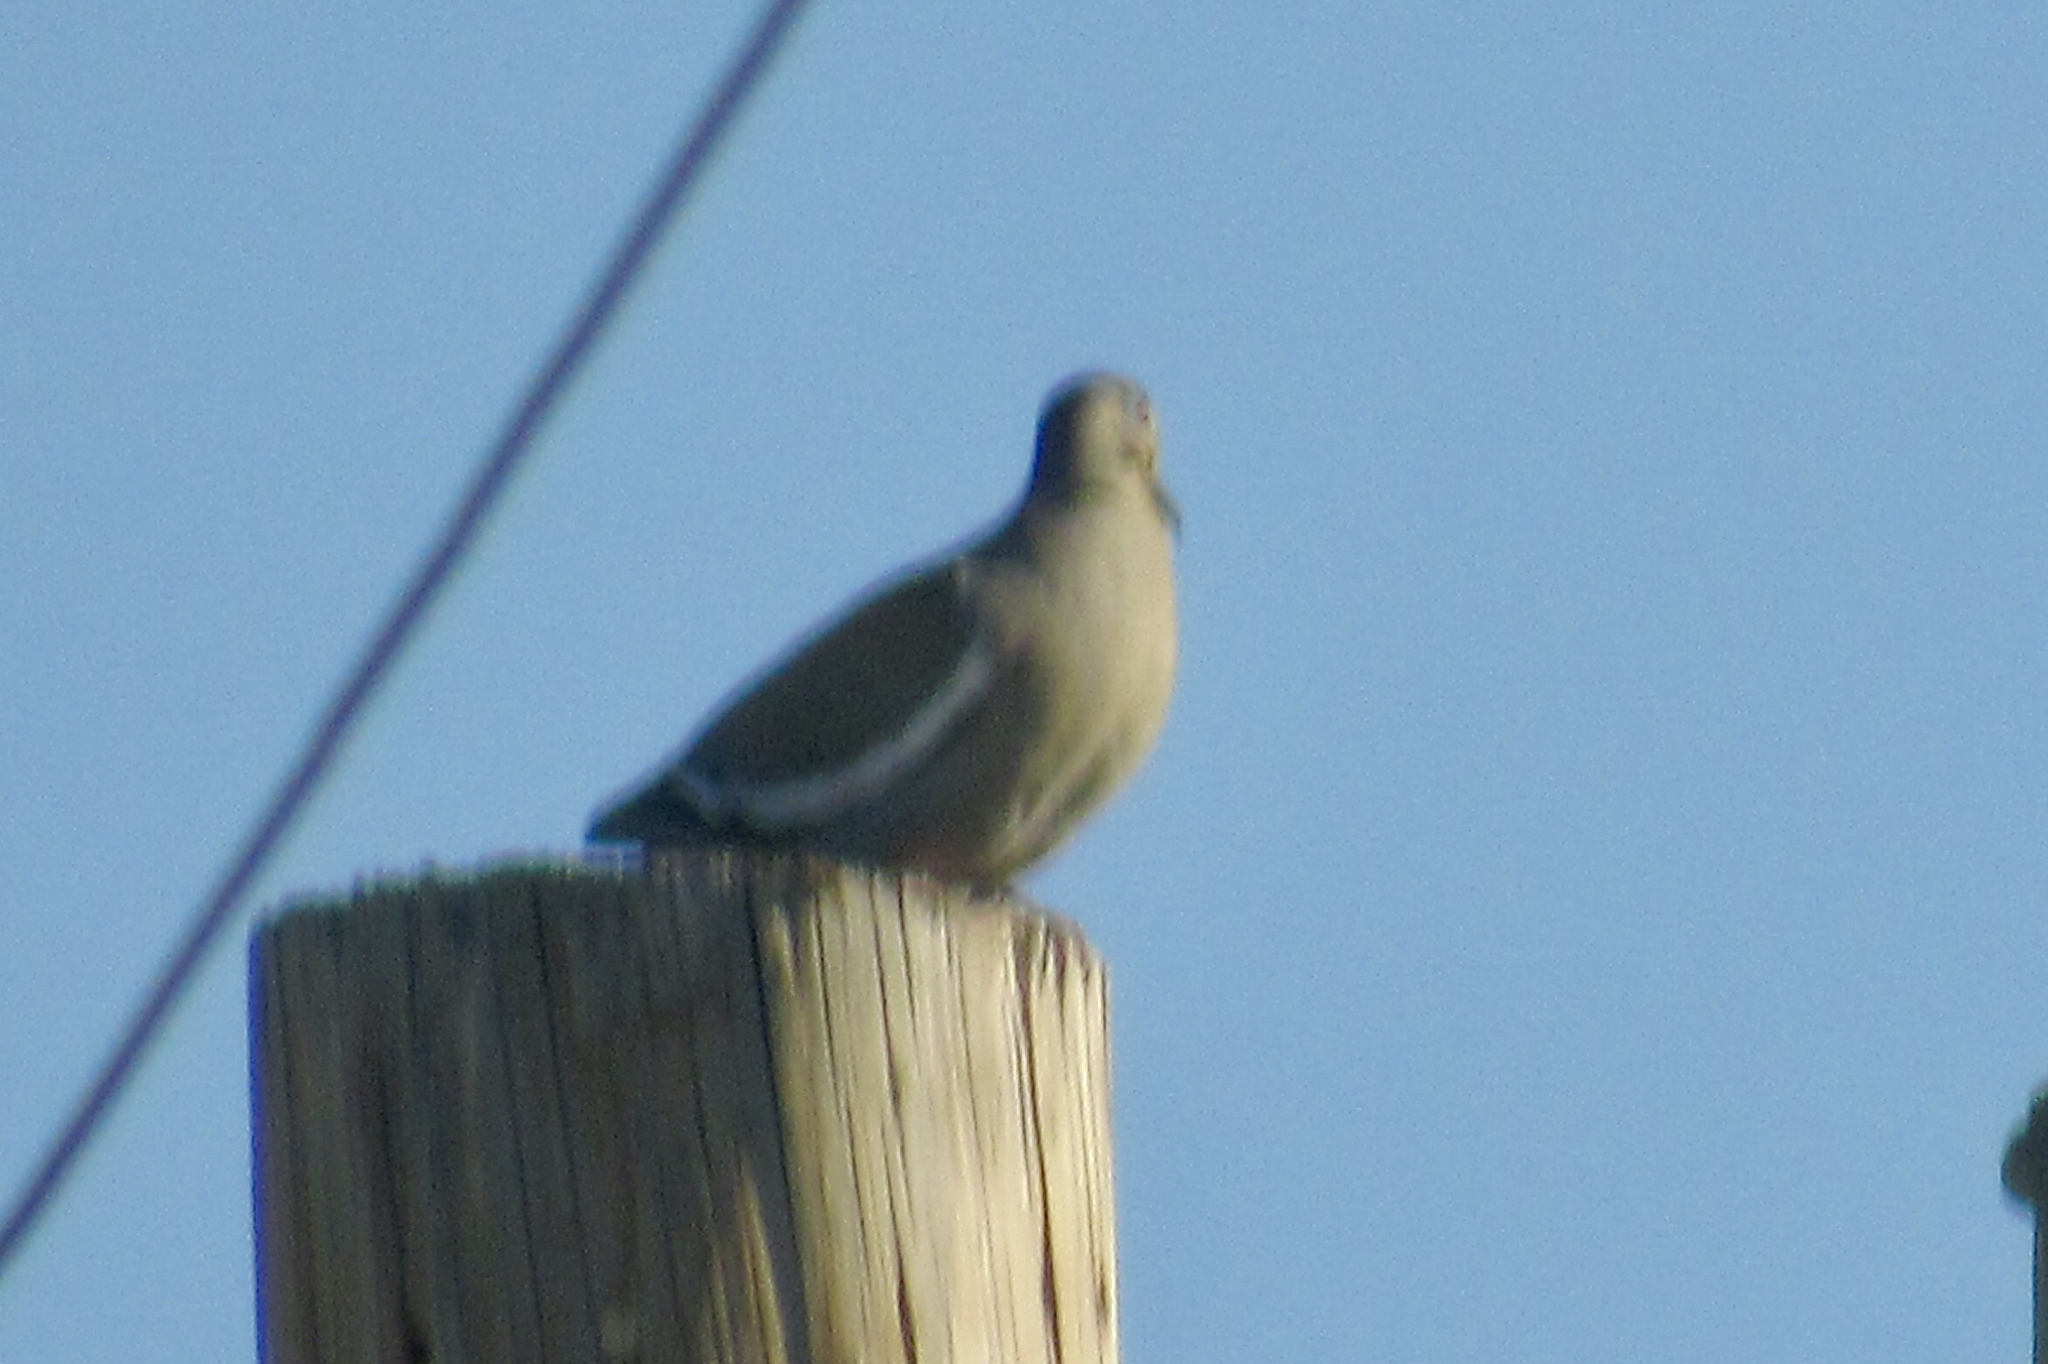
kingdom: Animalia
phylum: Chordata
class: Aves
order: Columbiformes
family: Columbidae
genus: Zenaida
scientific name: Zenaida asiatica
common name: White-winged dove
